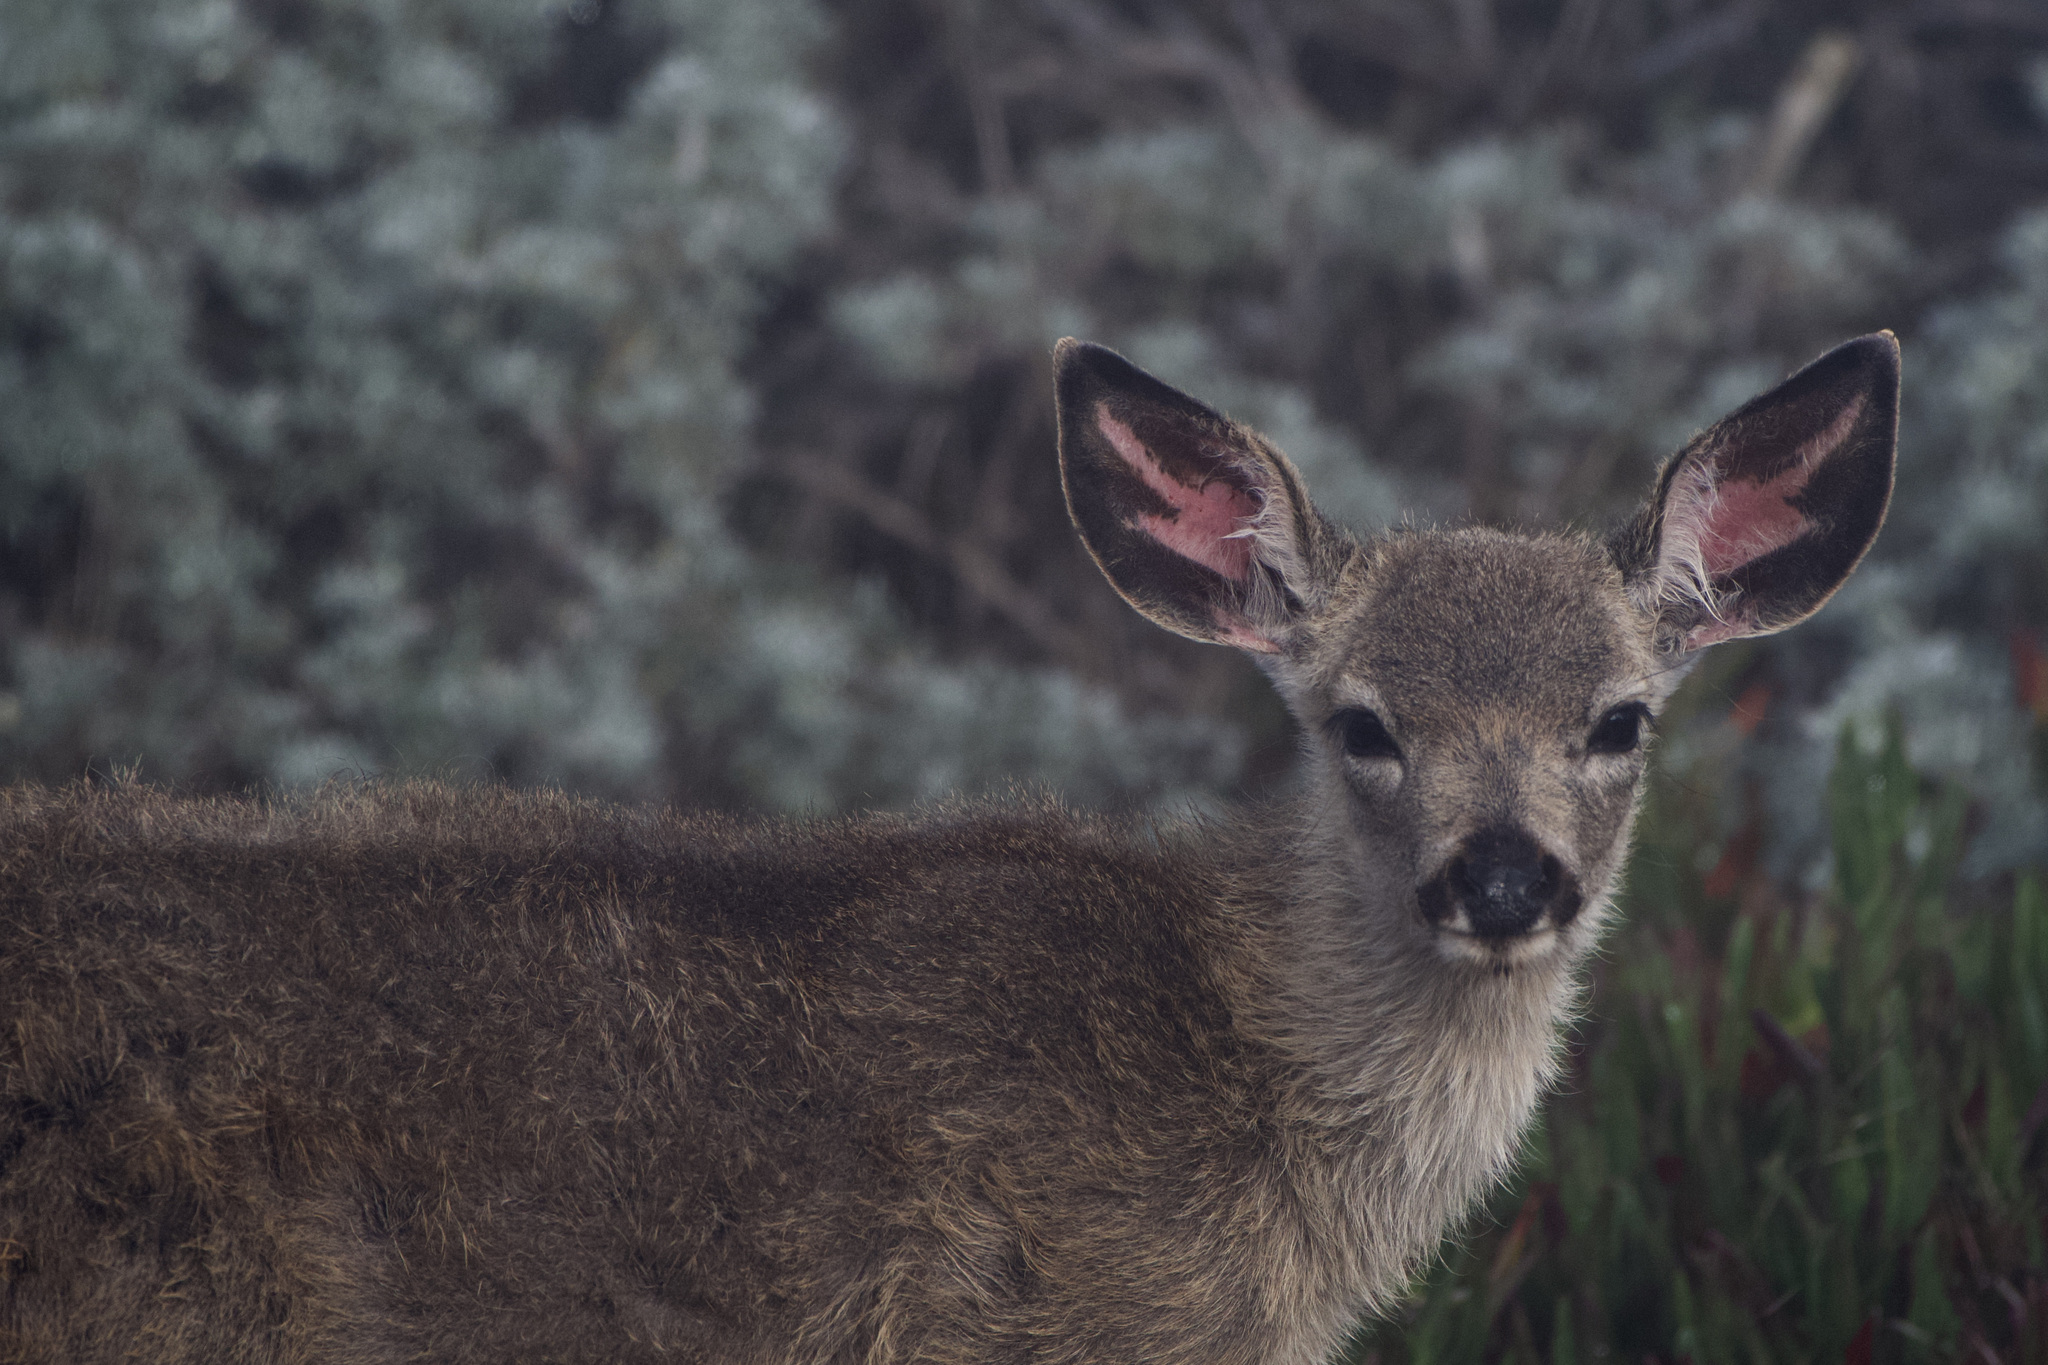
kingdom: Animalia
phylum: Chordata
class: Mammalia
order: Artiodactyla
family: Cervidae
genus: Odocoileus
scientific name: Odocoileus hemionus
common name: Mule deer
